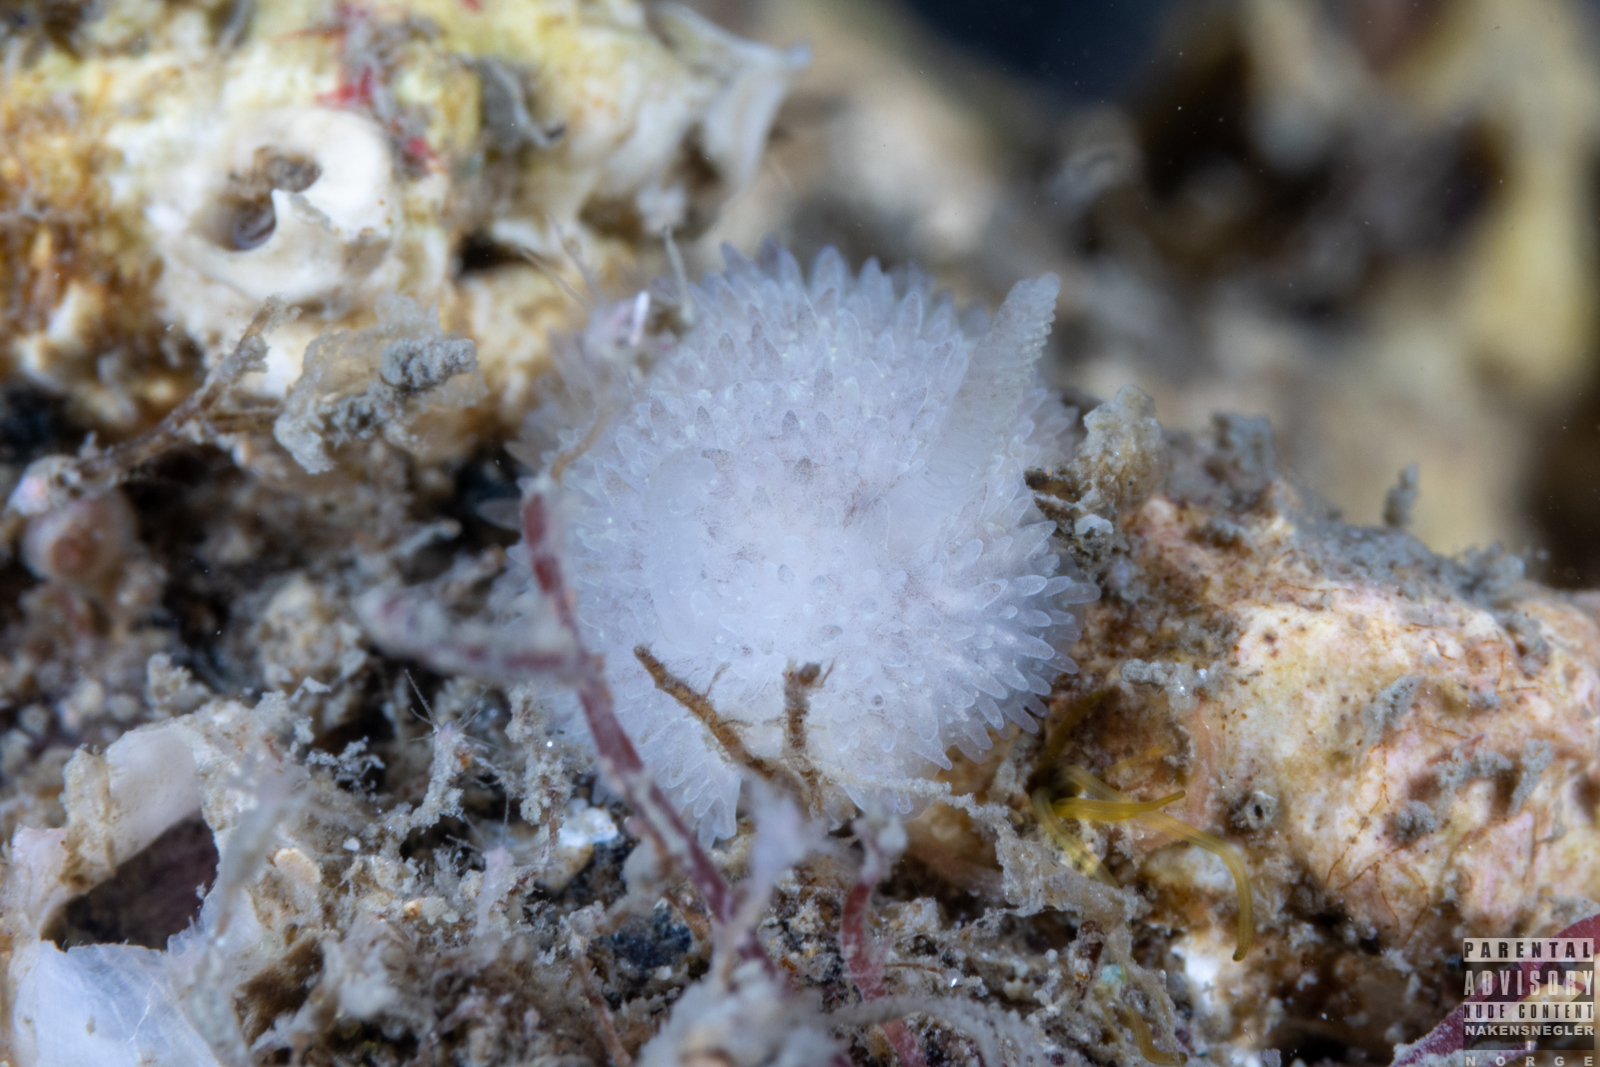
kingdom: Animalia
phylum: Mollusca
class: Gastropoda
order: Nudibranchia
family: Onchidorididae
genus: Acanthodoris
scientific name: Acanthodoris pilosa
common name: Hairy spiny doris
